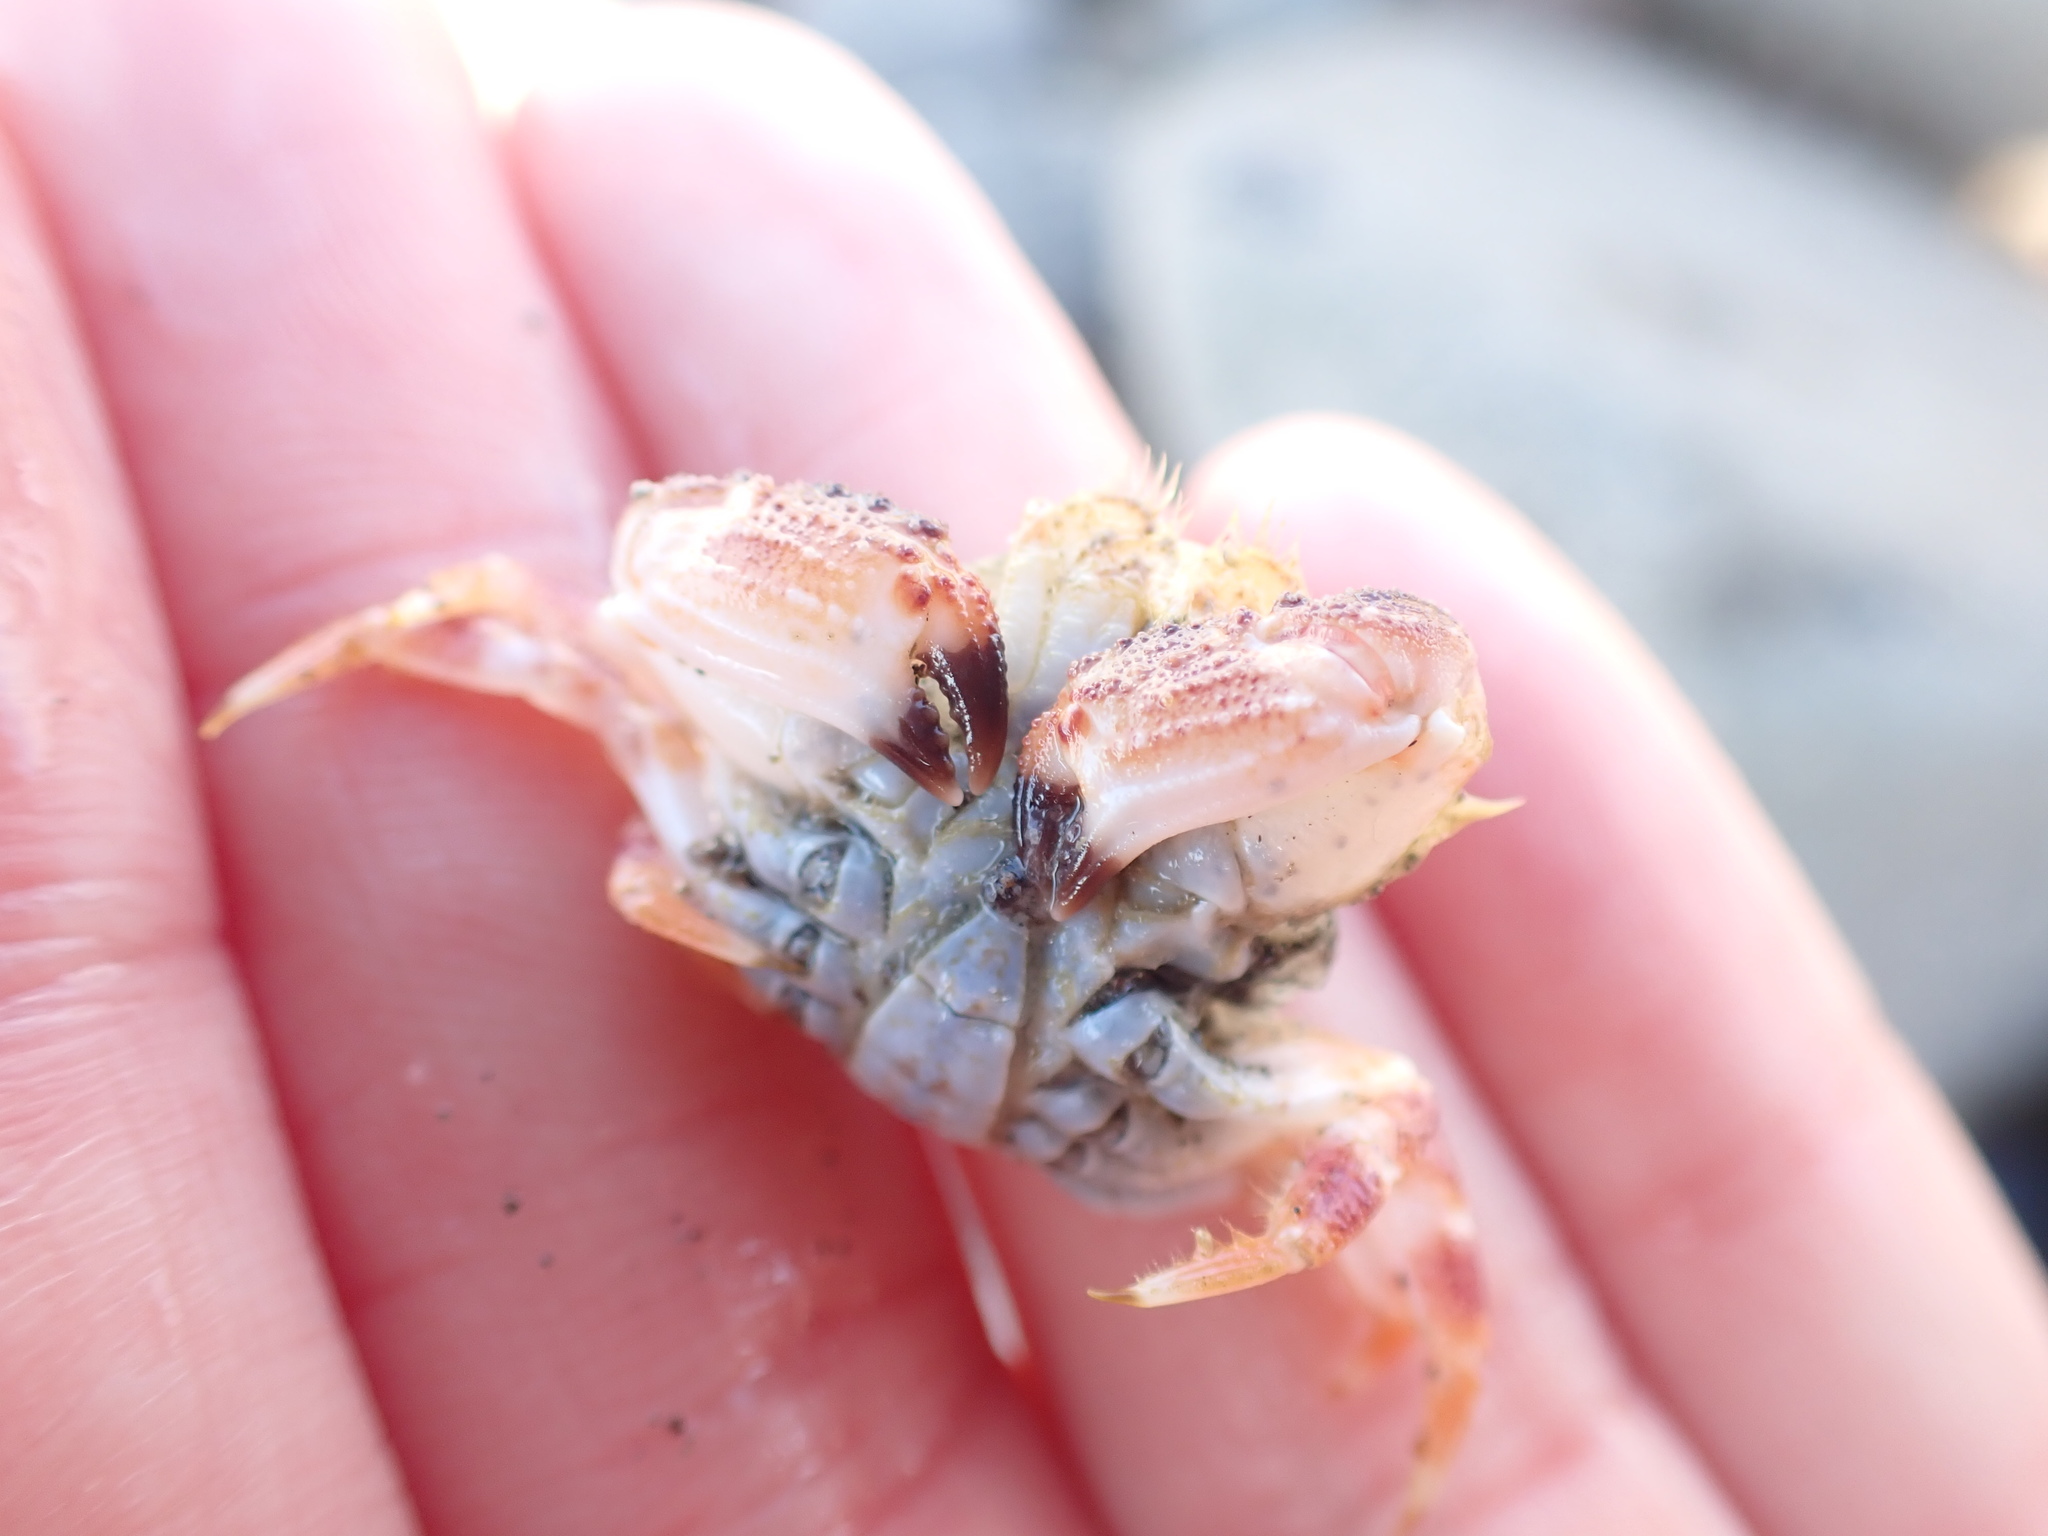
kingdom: Animalia
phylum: Arthropoda
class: Malacostraca
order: Decapoda
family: Cancridae
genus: Metacarcinus
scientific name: Metacarcinus novaezelandiae
